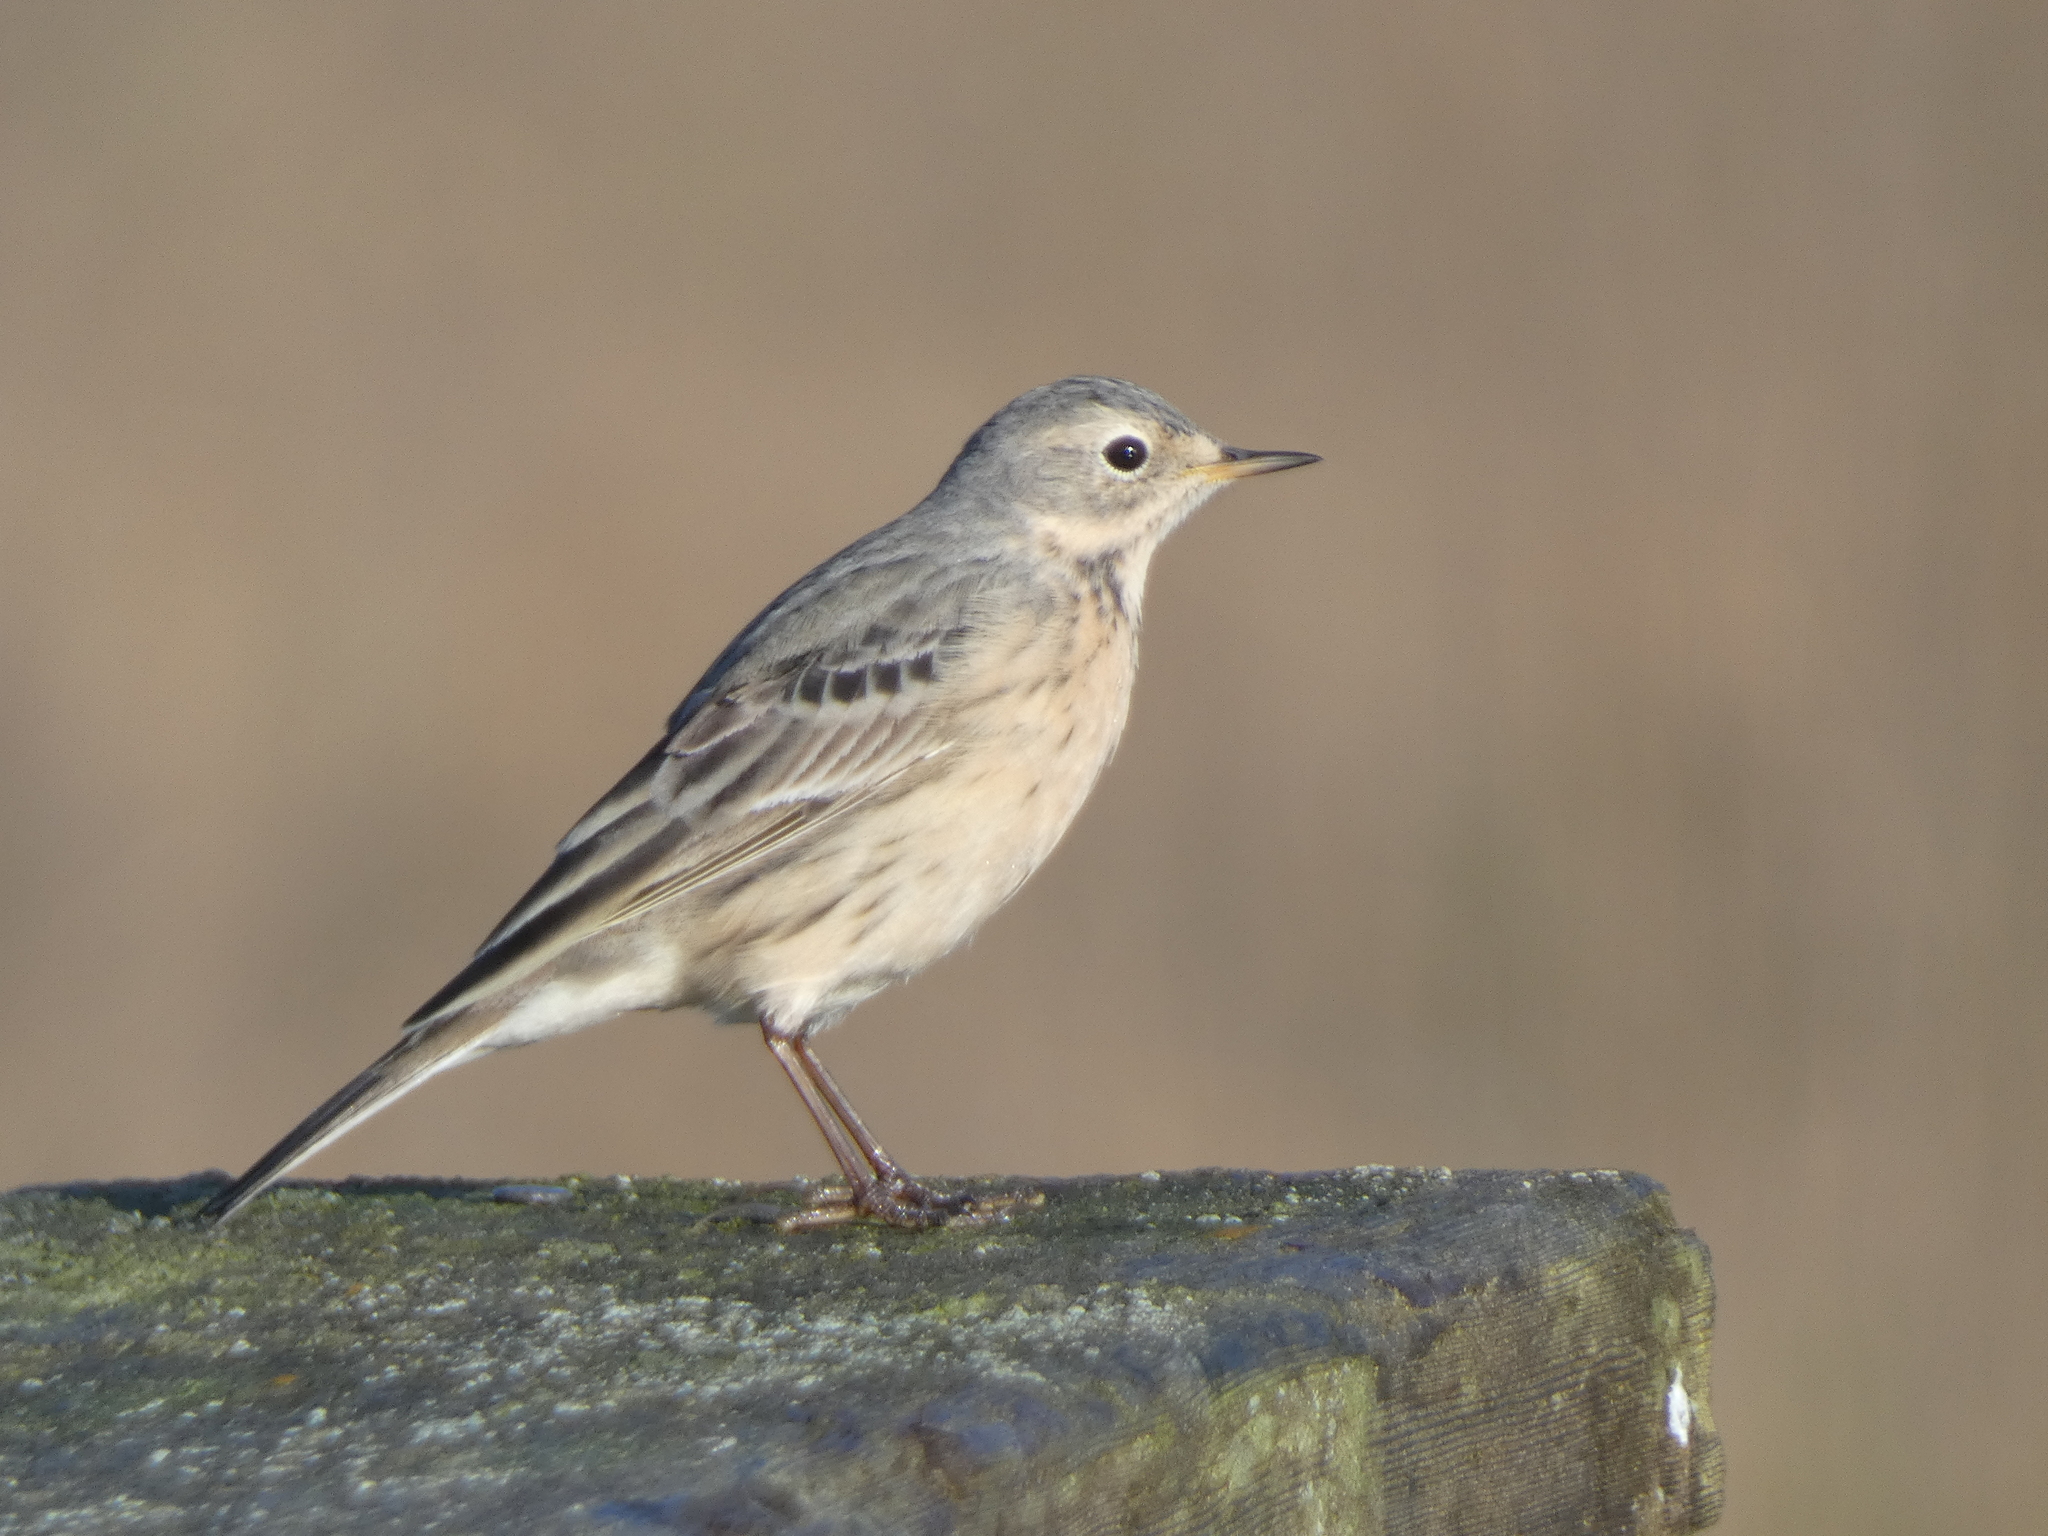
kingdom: Animalia
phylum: Chordata
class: Aves
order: Passeriformes
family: Motacillidae
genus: Anthus
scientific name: Anthus rubescens
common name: Buff-bellied pipit
